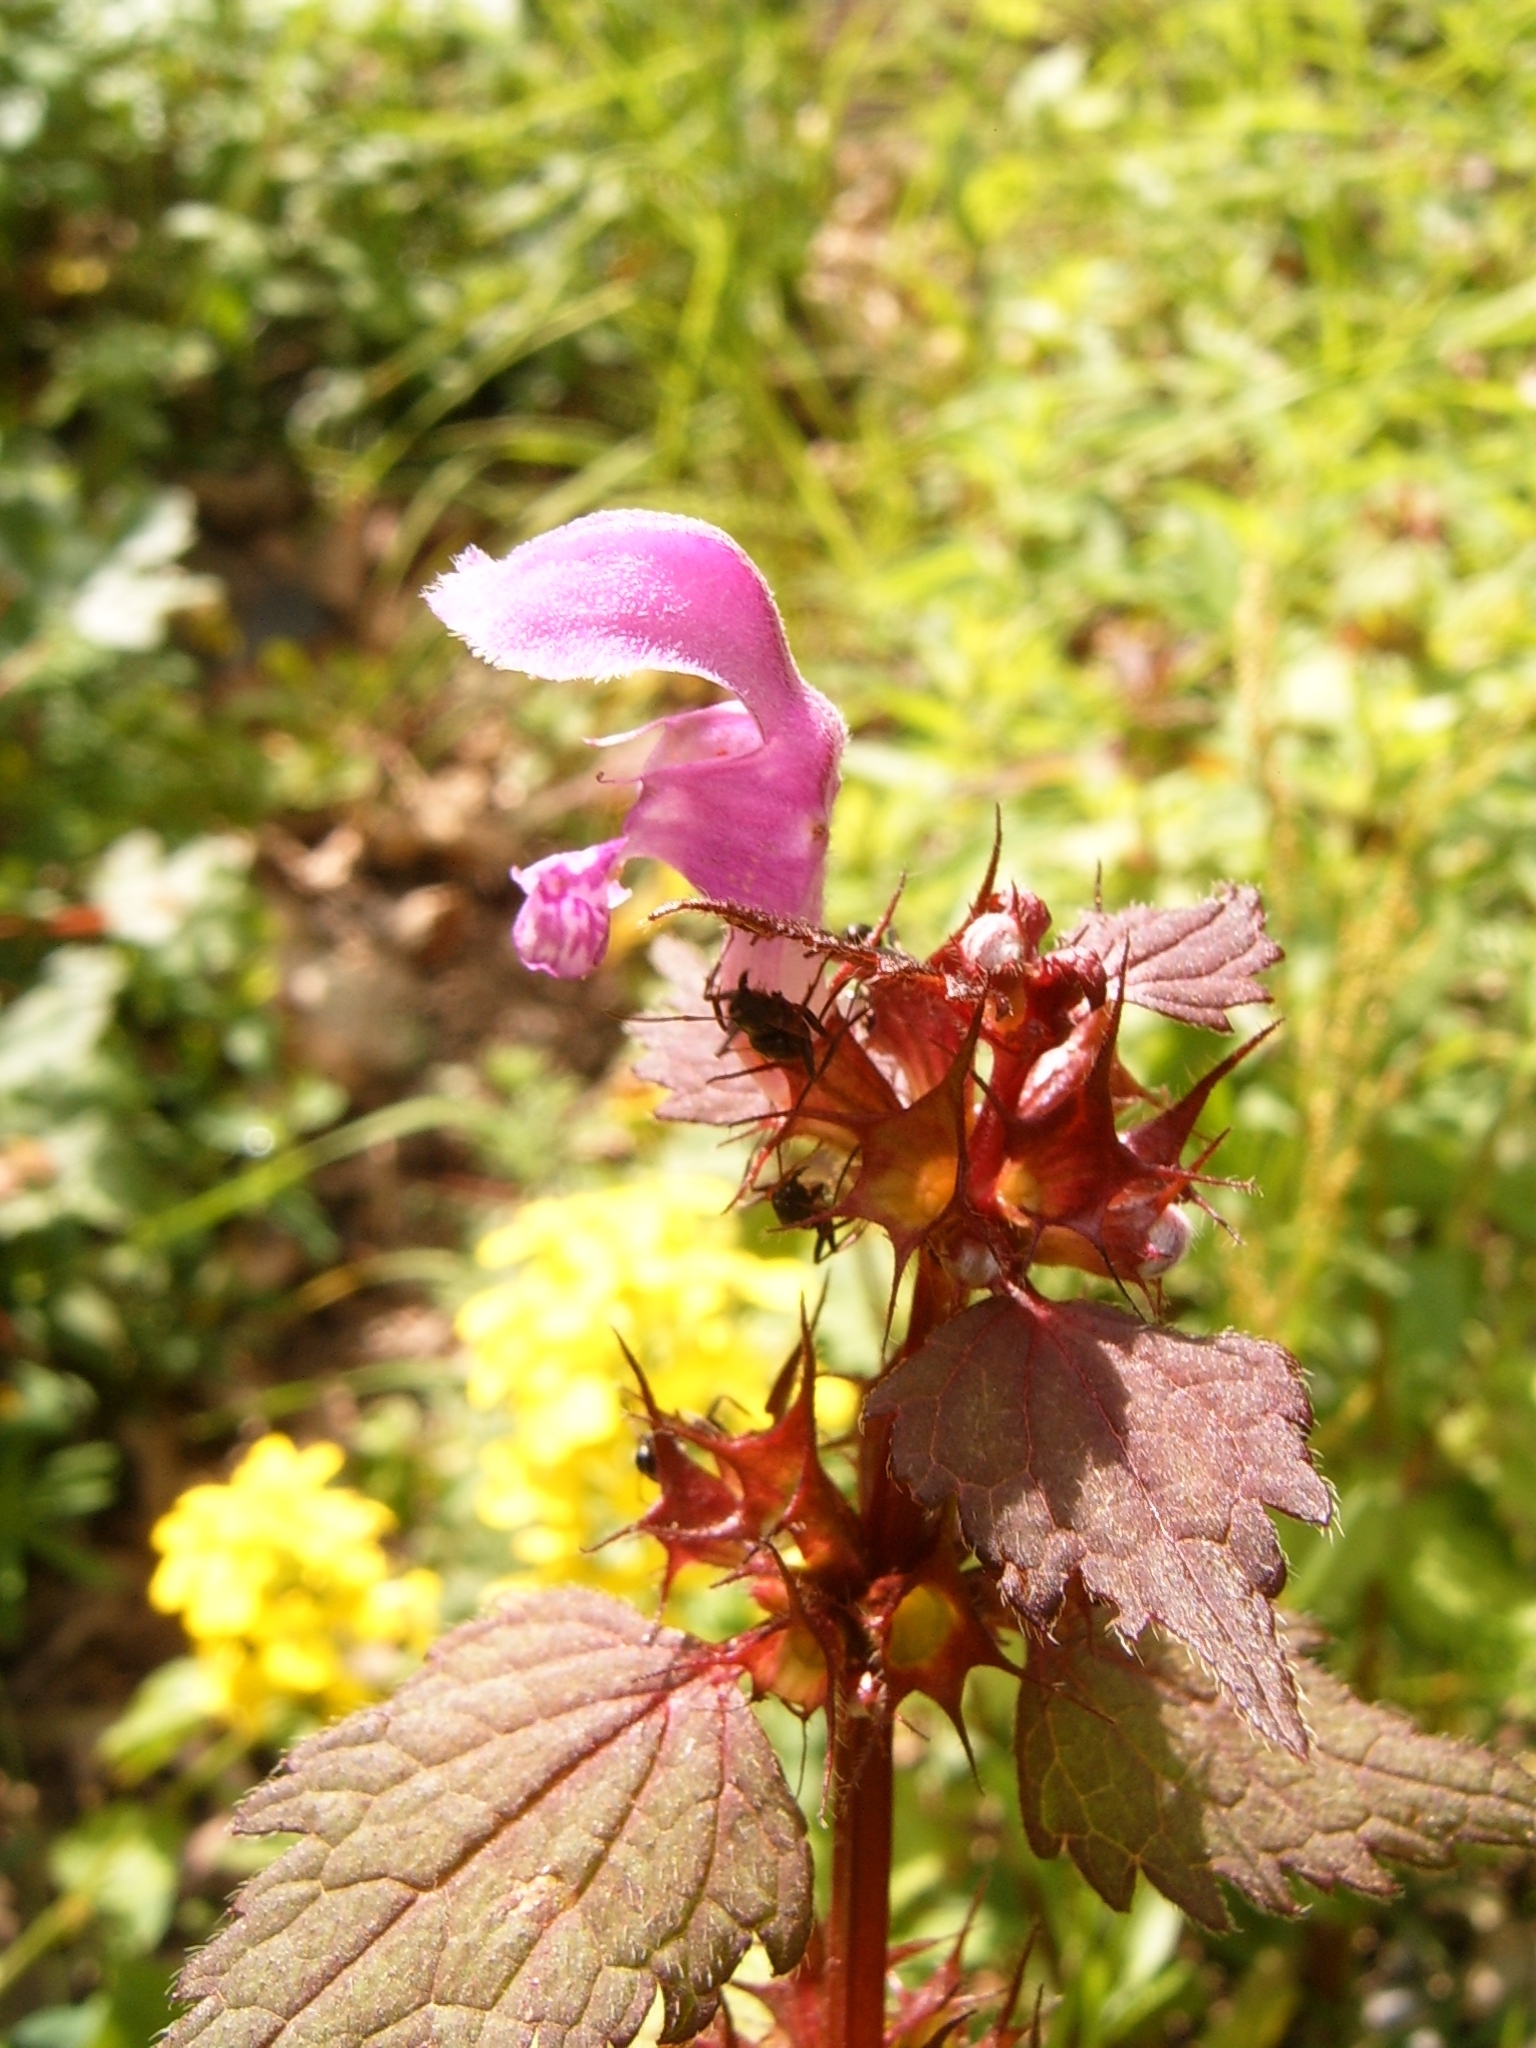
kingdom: Plantae
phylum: Tracheophyta
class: Magnoliopsida
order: Lamiales
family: Lamiaceae
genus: Lamium
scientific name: Lamium maculatum
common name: Spotted dead-nettle
